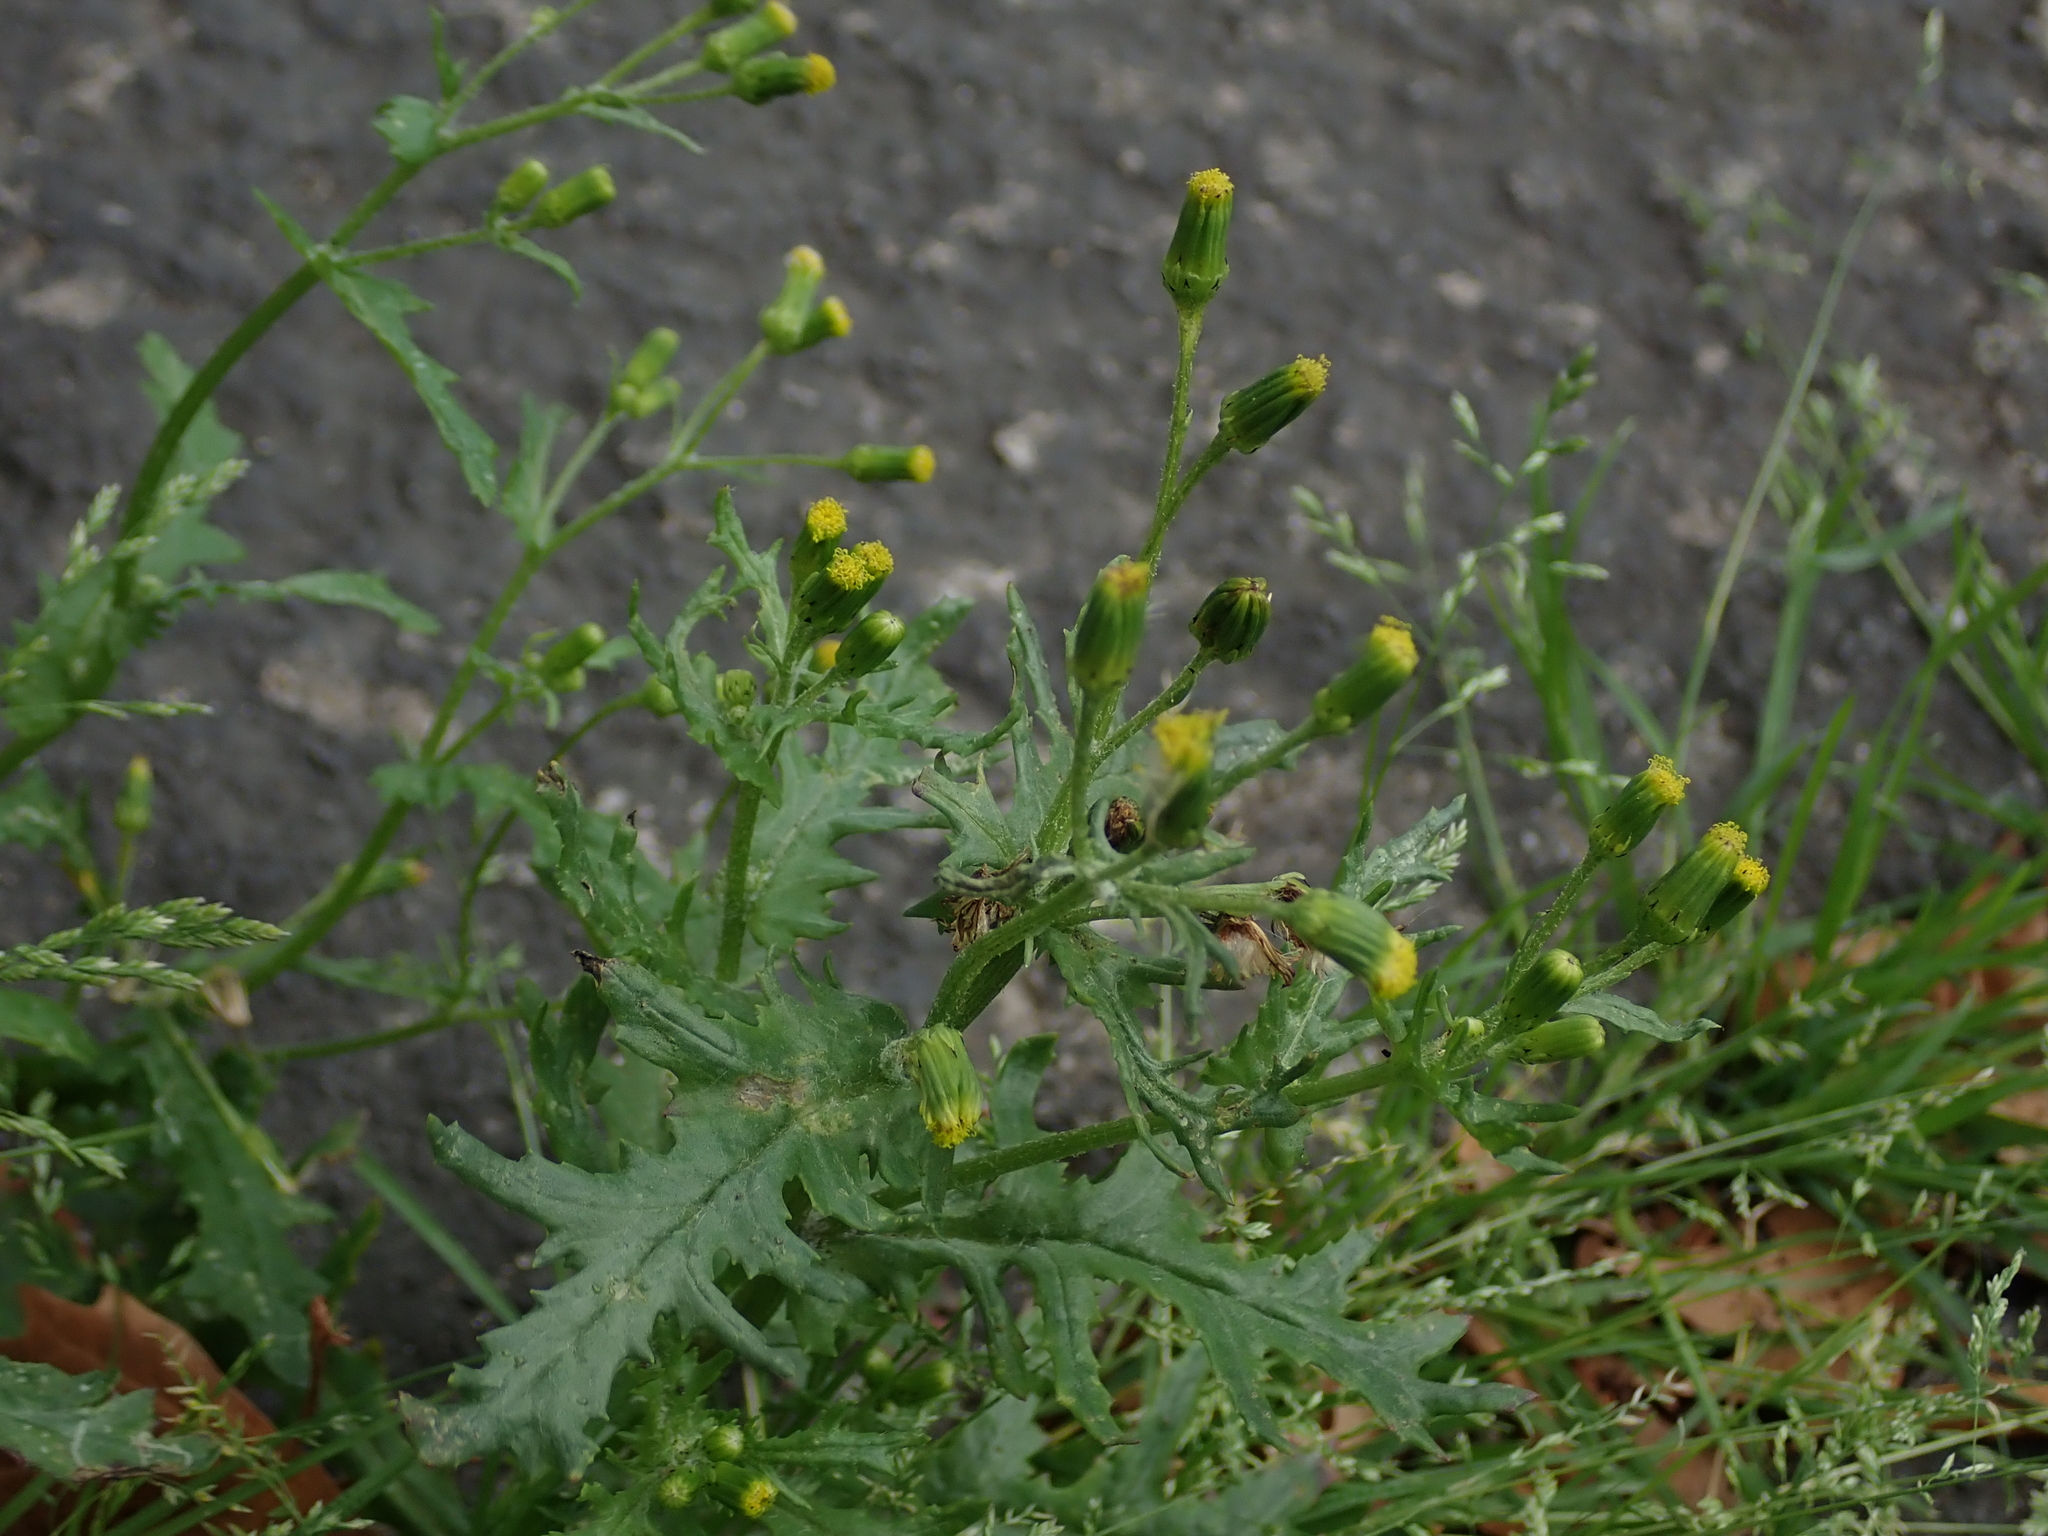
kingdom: Plantae
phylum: Tracheophyta
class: Magnoliopsida
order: Asterales
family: Asteraceae
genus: Senecio
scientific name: Senecio vulgaris
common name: Old-man-in-the-spring
